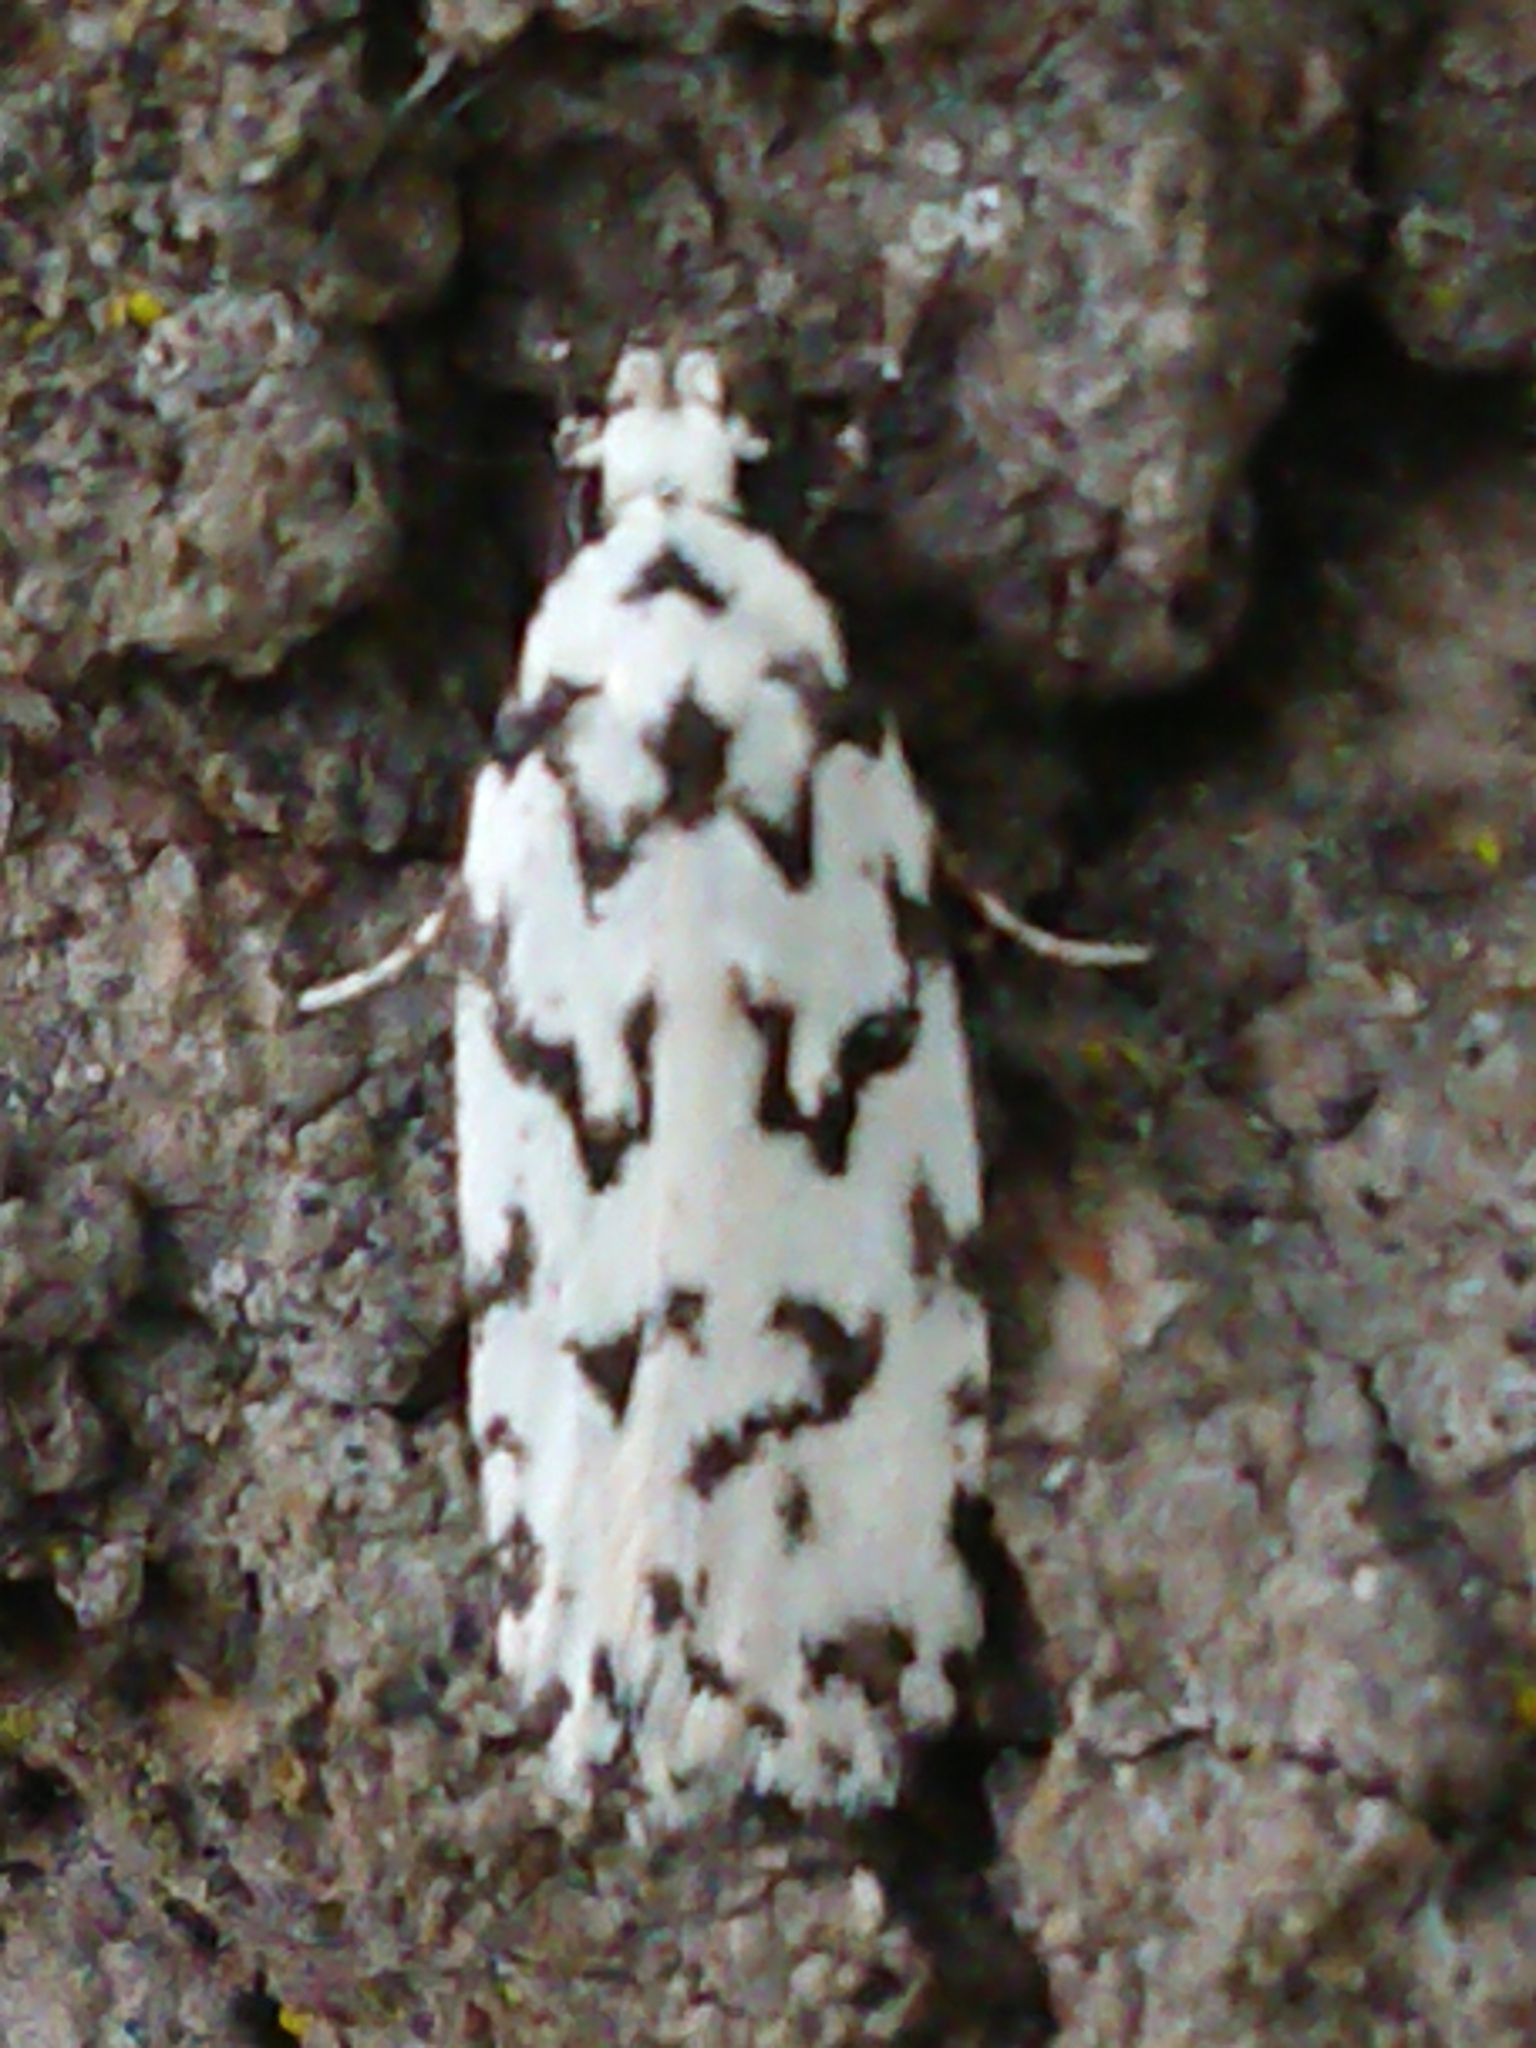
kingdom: Animalia
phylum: Arthropoda
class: Insecta
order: Lepidoptera
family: Oecophoridae
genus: Izatha
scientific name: Izatha katadiktya
